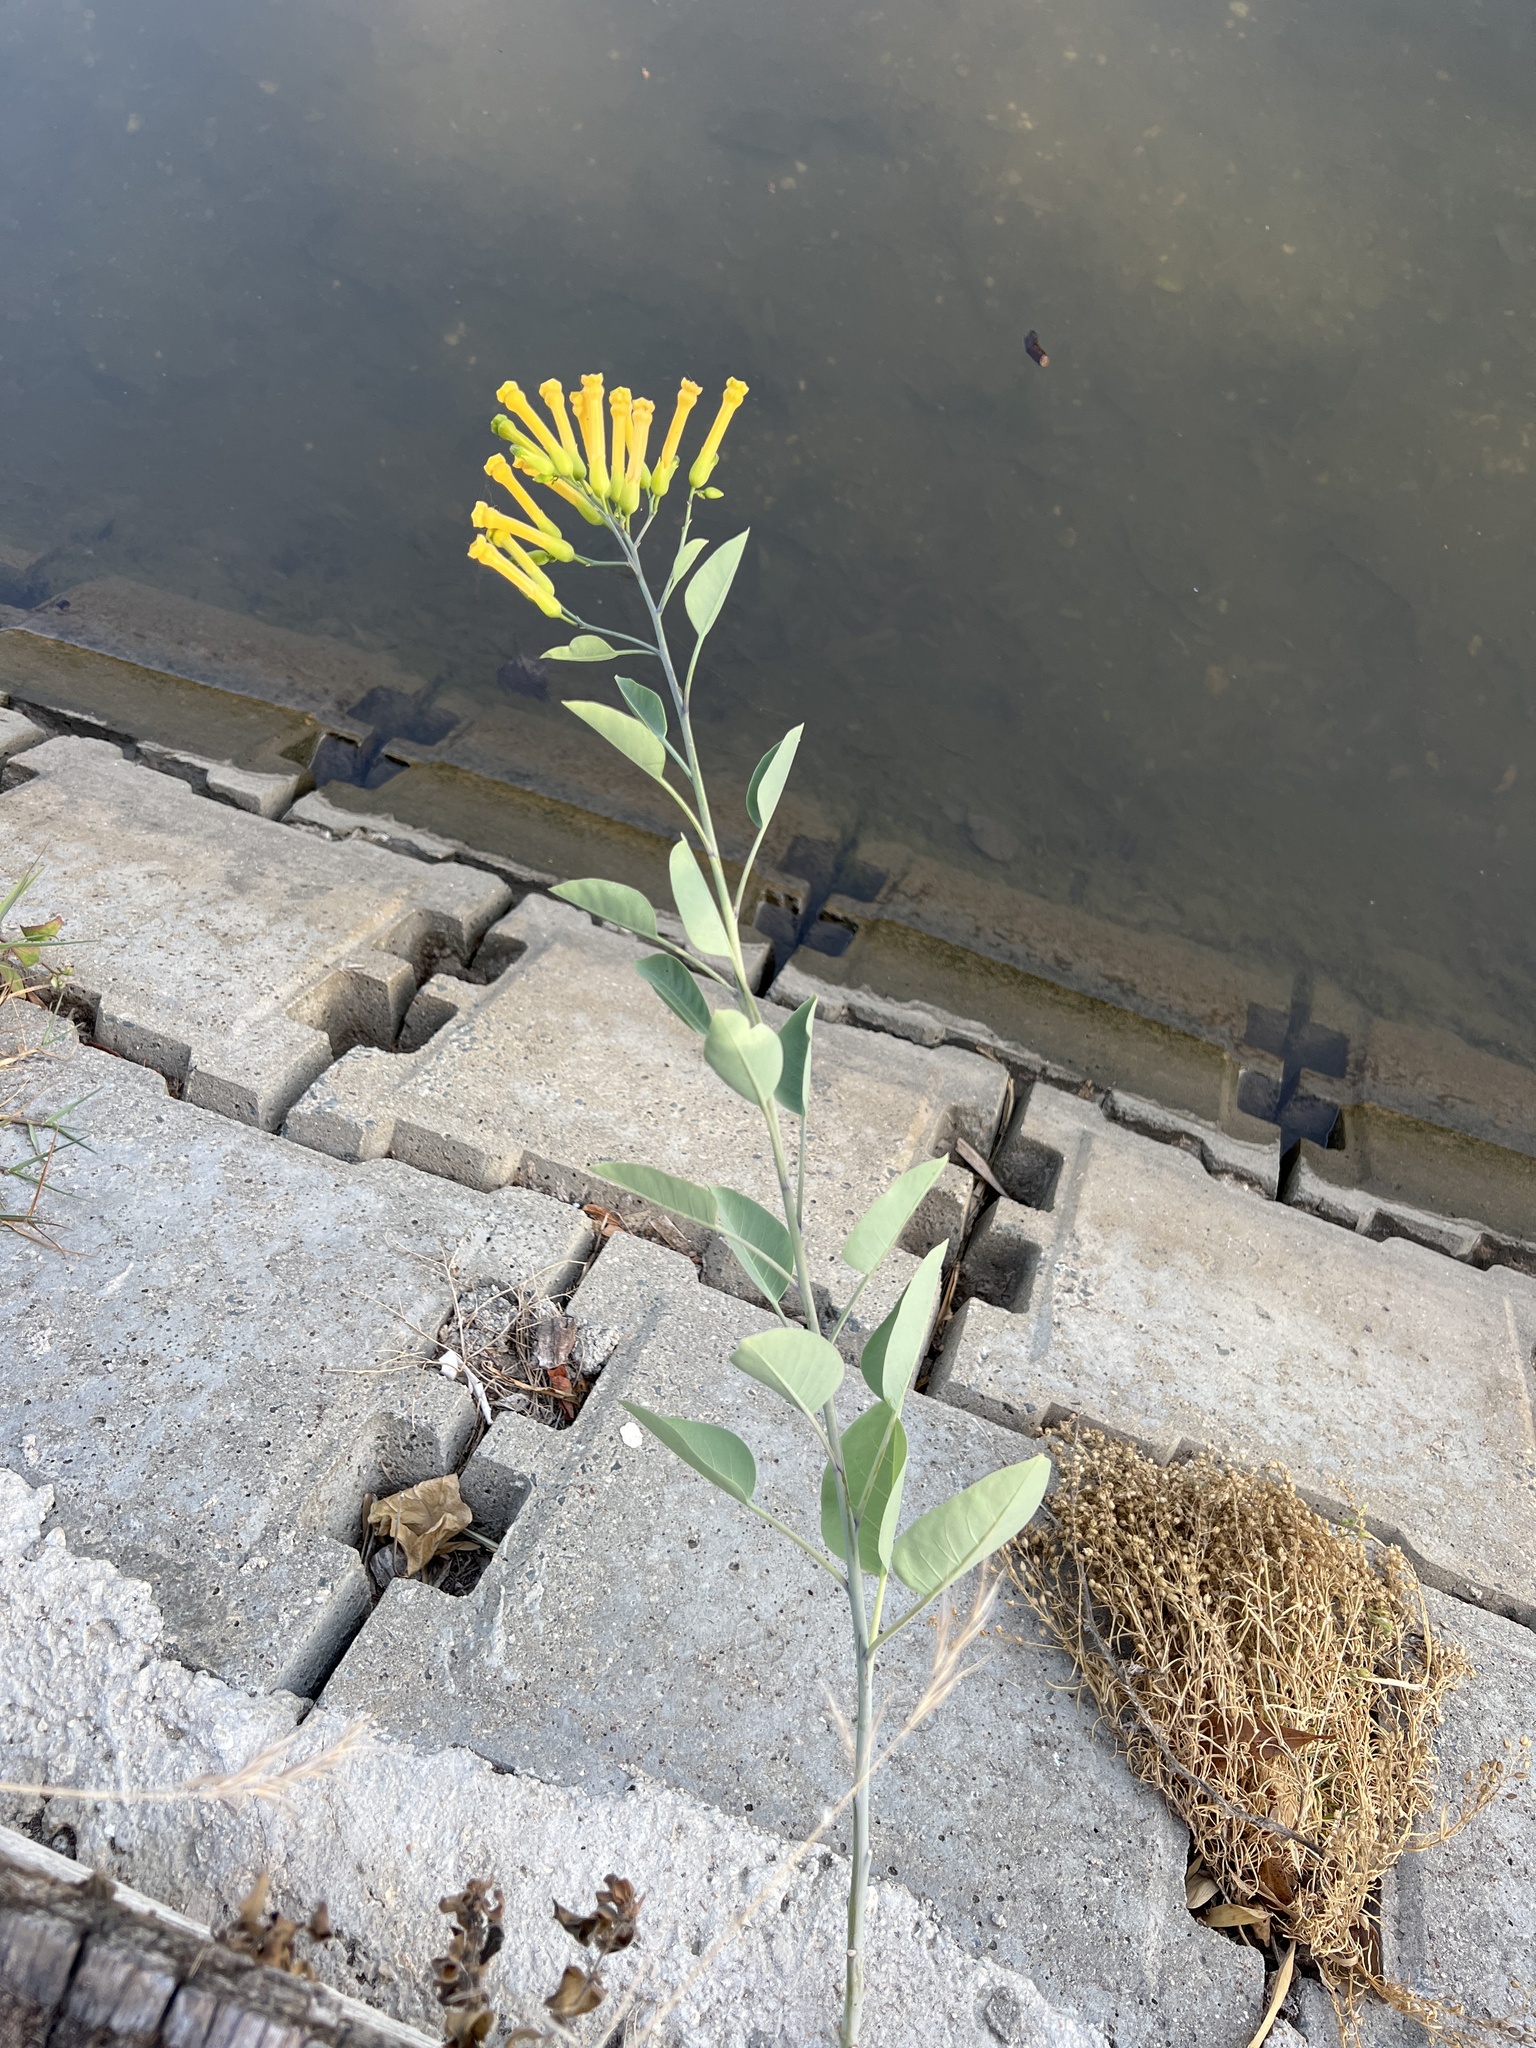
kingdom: Plantae
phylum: Tracheophyta
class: Magnoliopsida
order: Solanales
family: Solanaceae
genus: Nicotiana
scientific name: Nicotiana glauca
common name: Tree tobacco
